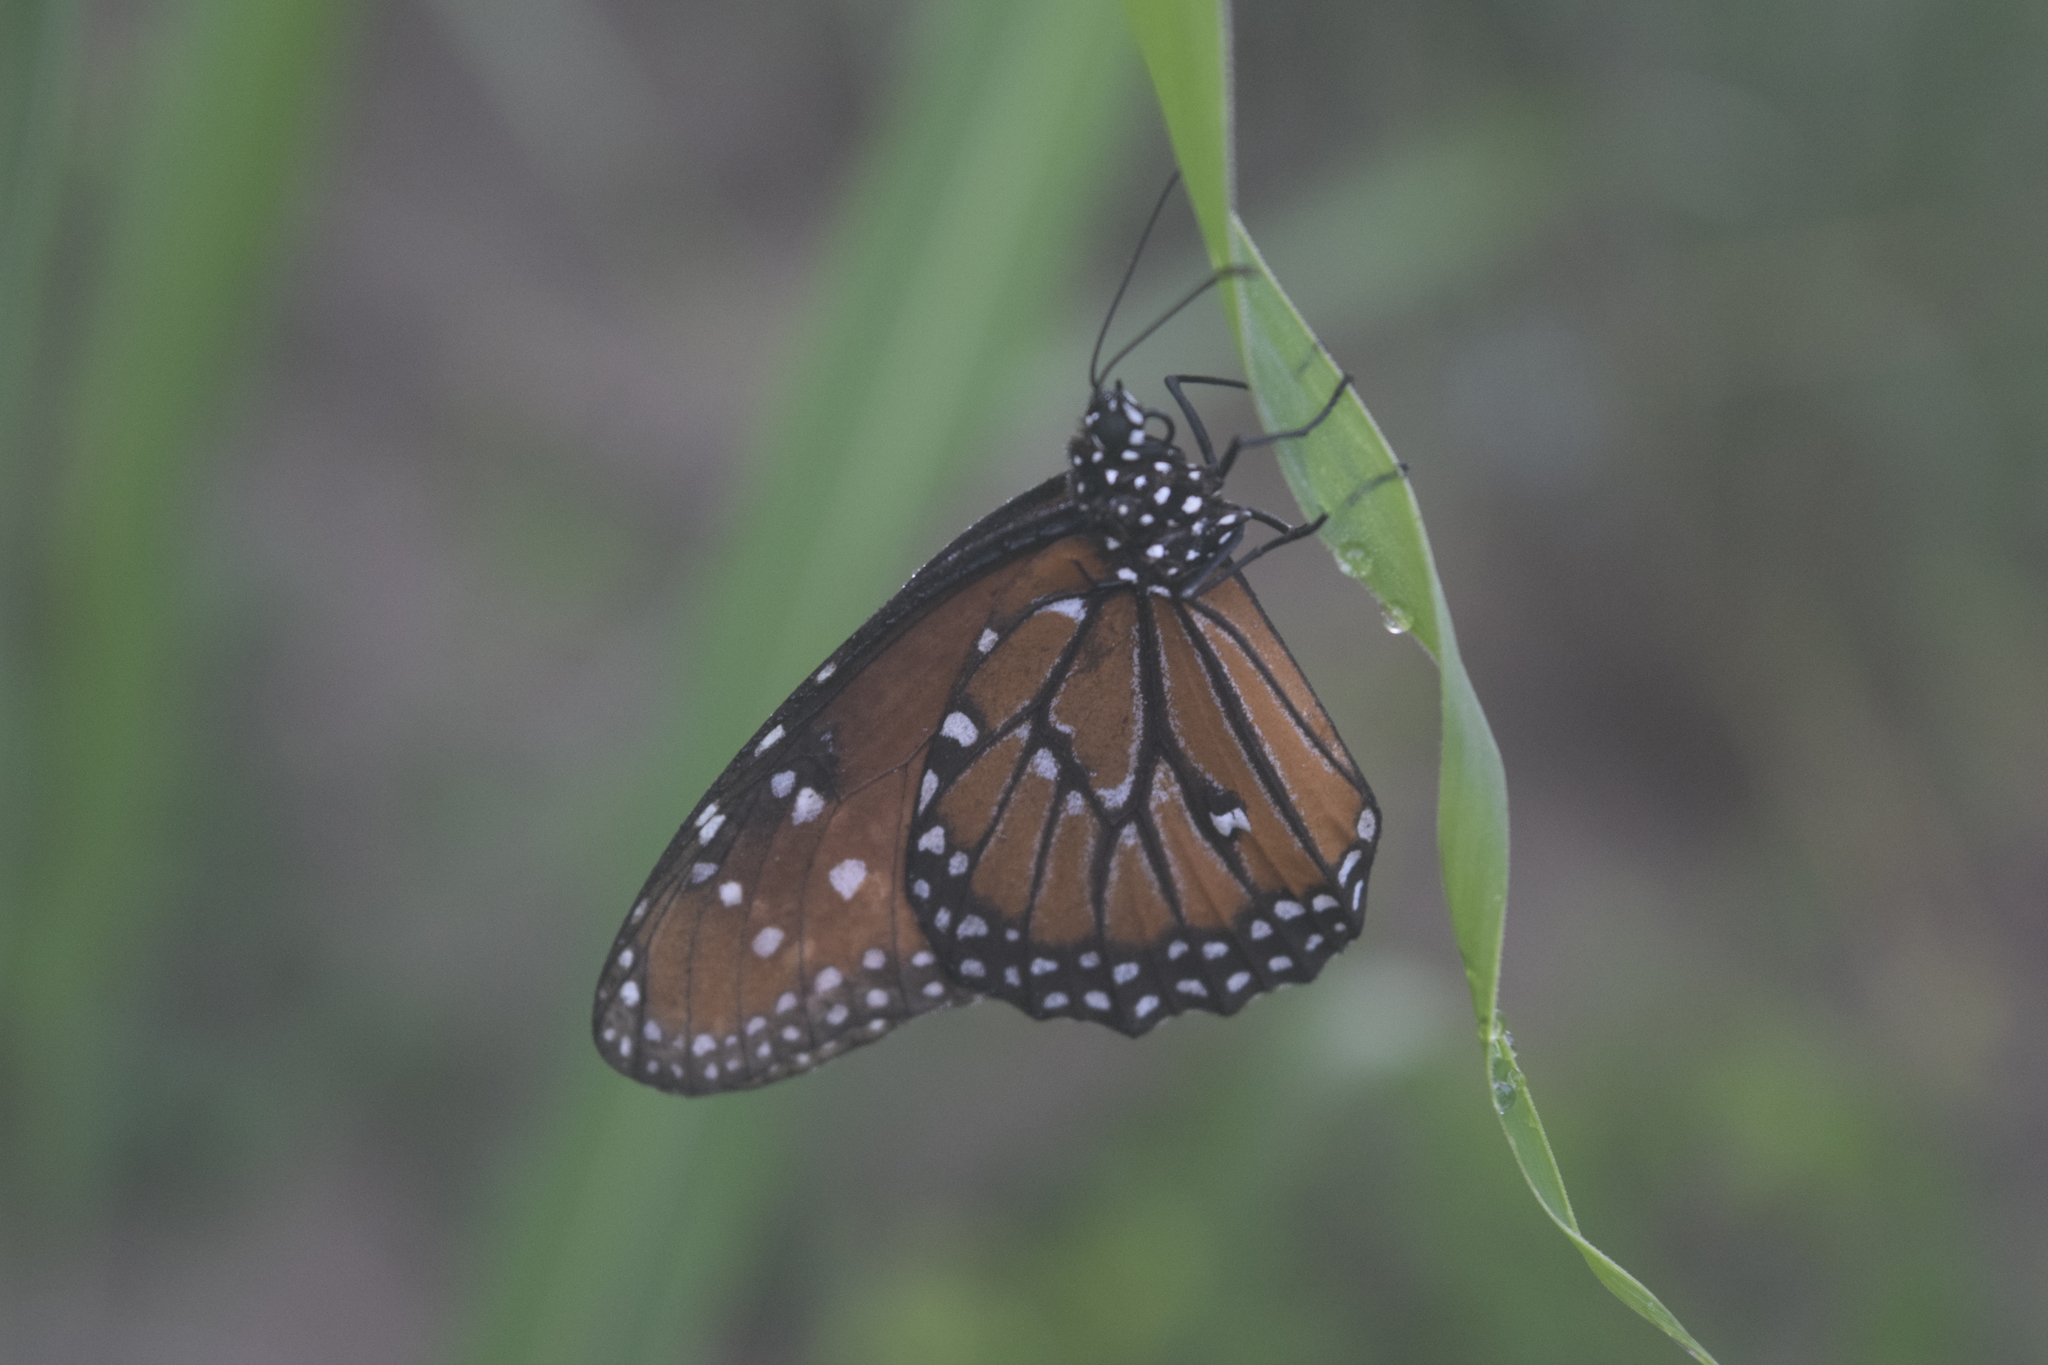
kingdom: Animalia
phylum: Arthropoda
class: Insecta
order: Lepidoptera
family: Nymphalidae
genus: Danaus
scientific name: Danaus gilippus
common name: Queen
